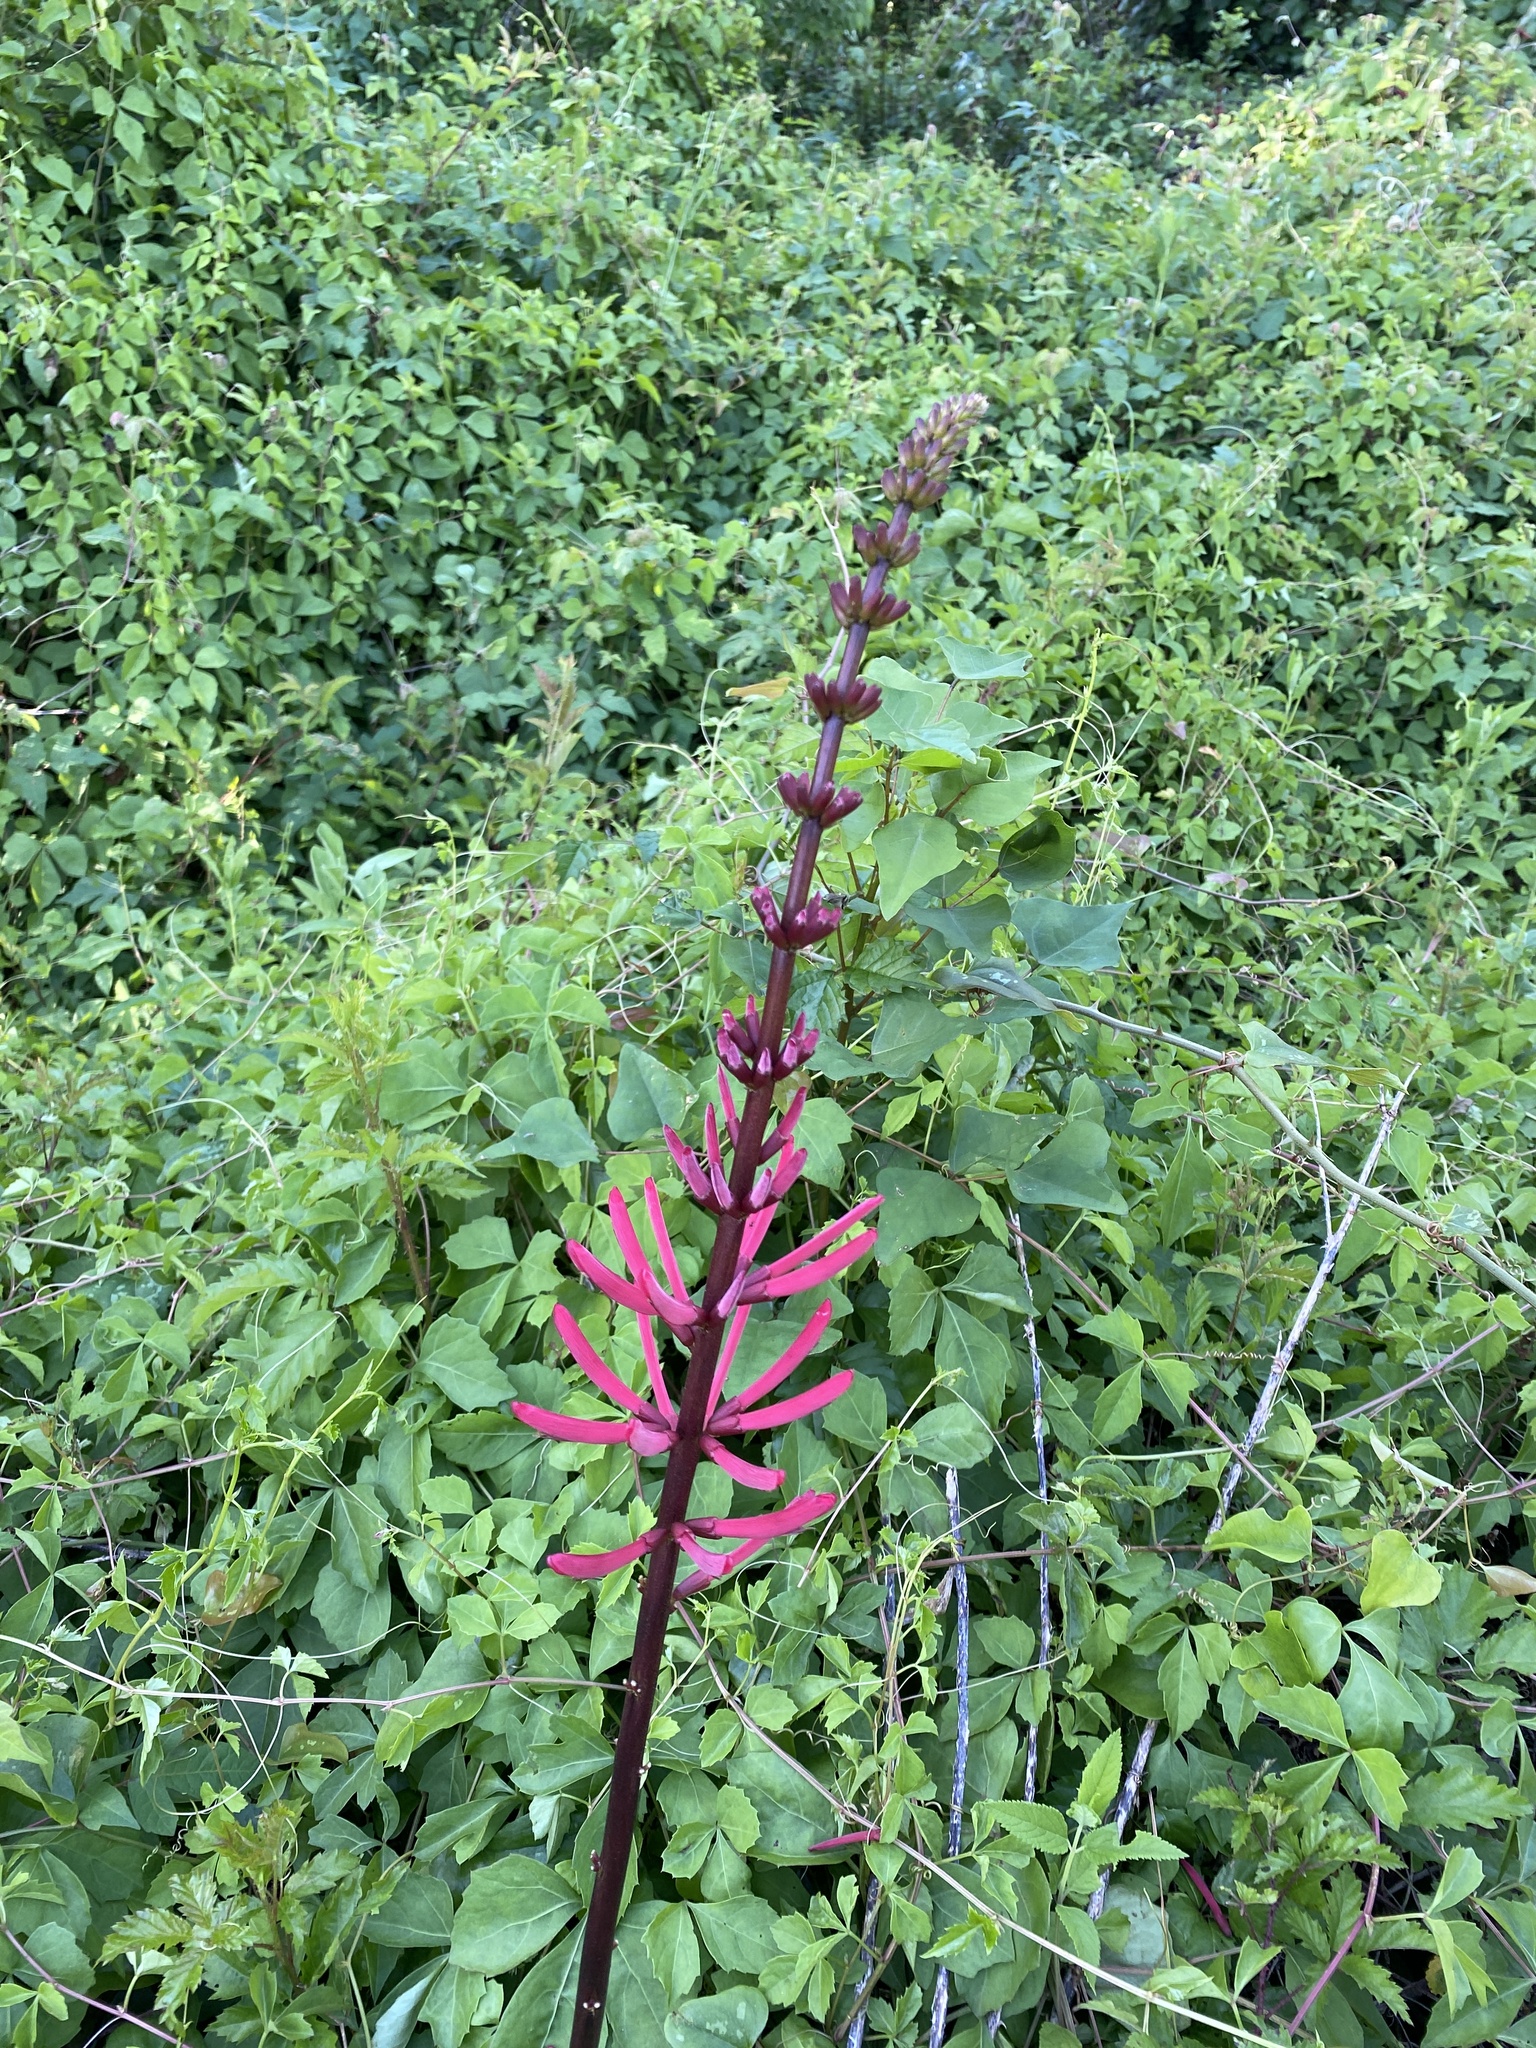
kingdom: Plantae
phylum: Tracheophyta
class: Magnoliopsida
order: Fabales
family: Fabaceae
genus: Erythrina
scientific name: Erythrina herbacea
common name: Coral-bean
